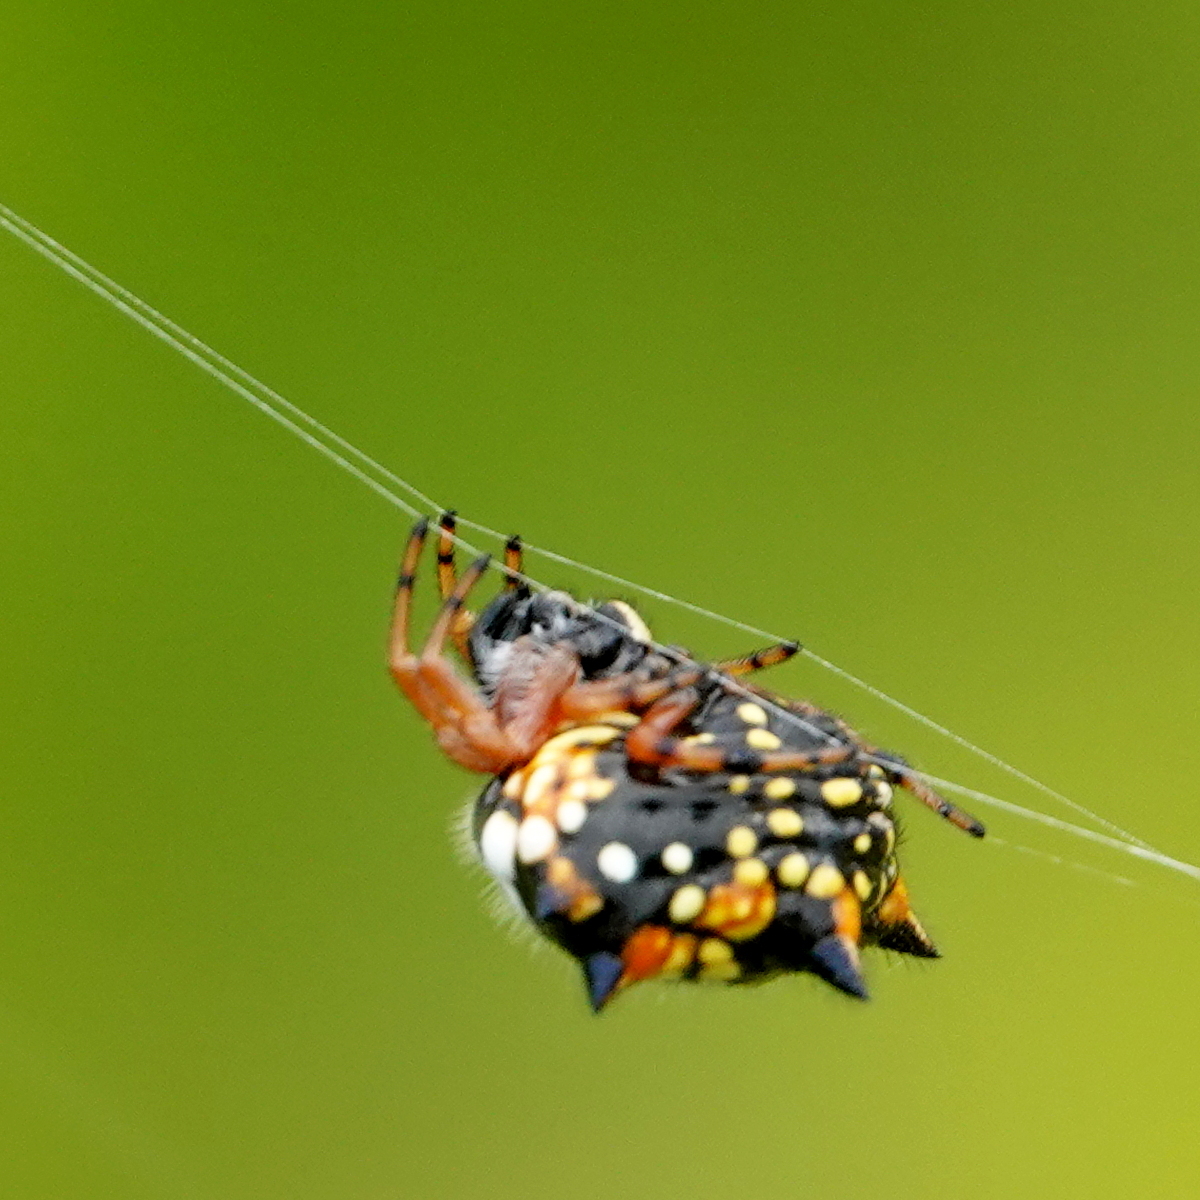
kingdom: Animalia
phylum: Arthropoda
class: Arachnida
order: Araneae
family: Araneidae
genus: Austracantha
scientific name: Austracantha minax
